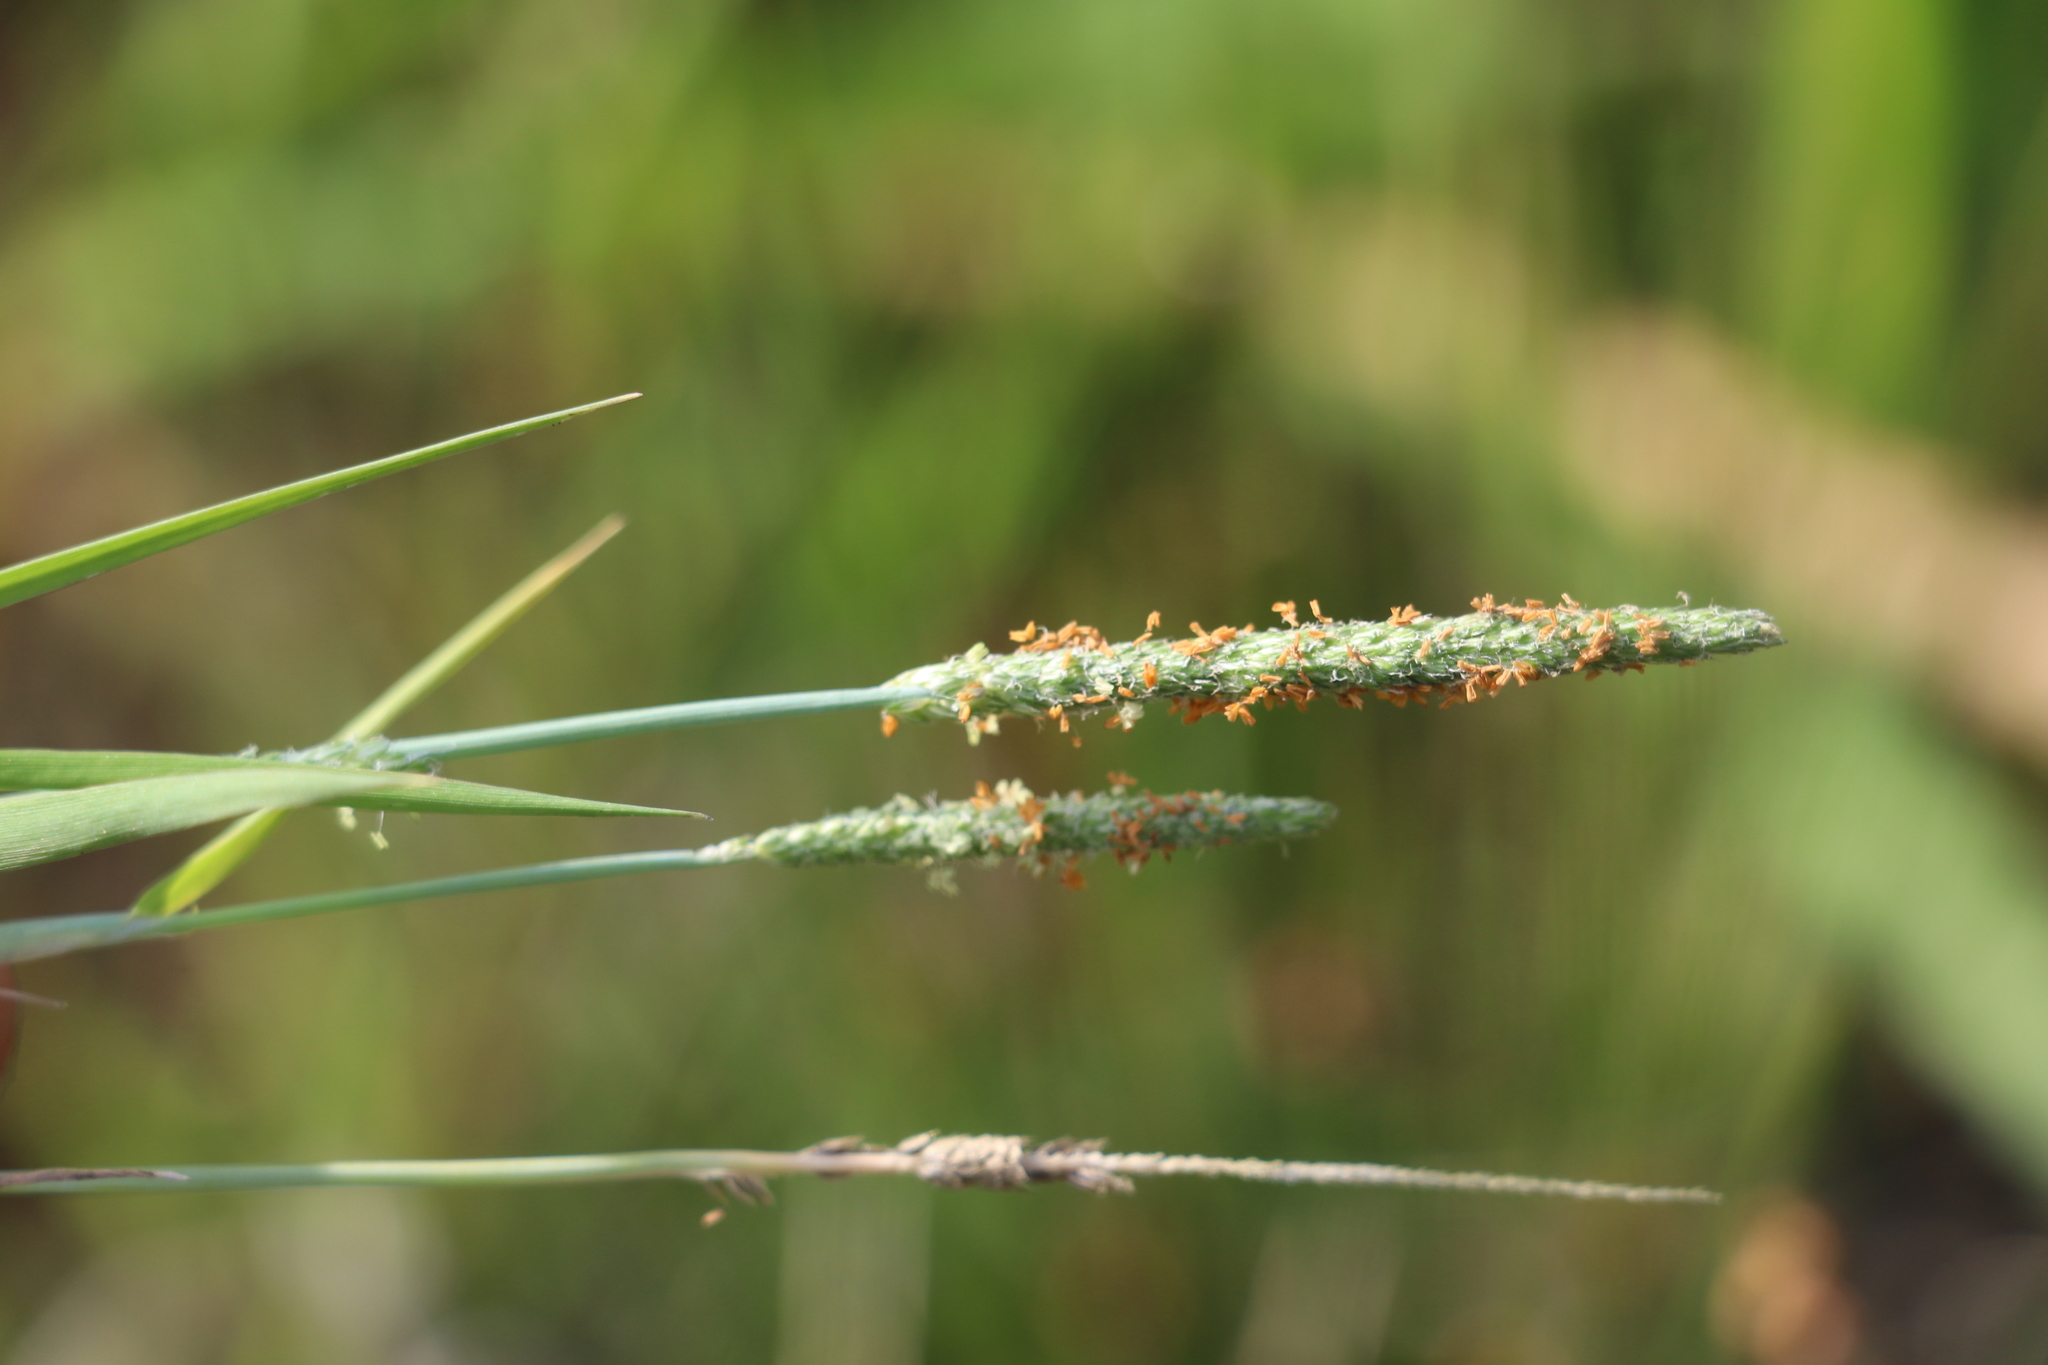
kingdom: Plantae
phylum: Tracheophyta
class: Liliopsida
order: Poales
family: Poaceae
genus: Alopecurus
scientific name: Alopecurus aequalis
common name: Orange foxtail
